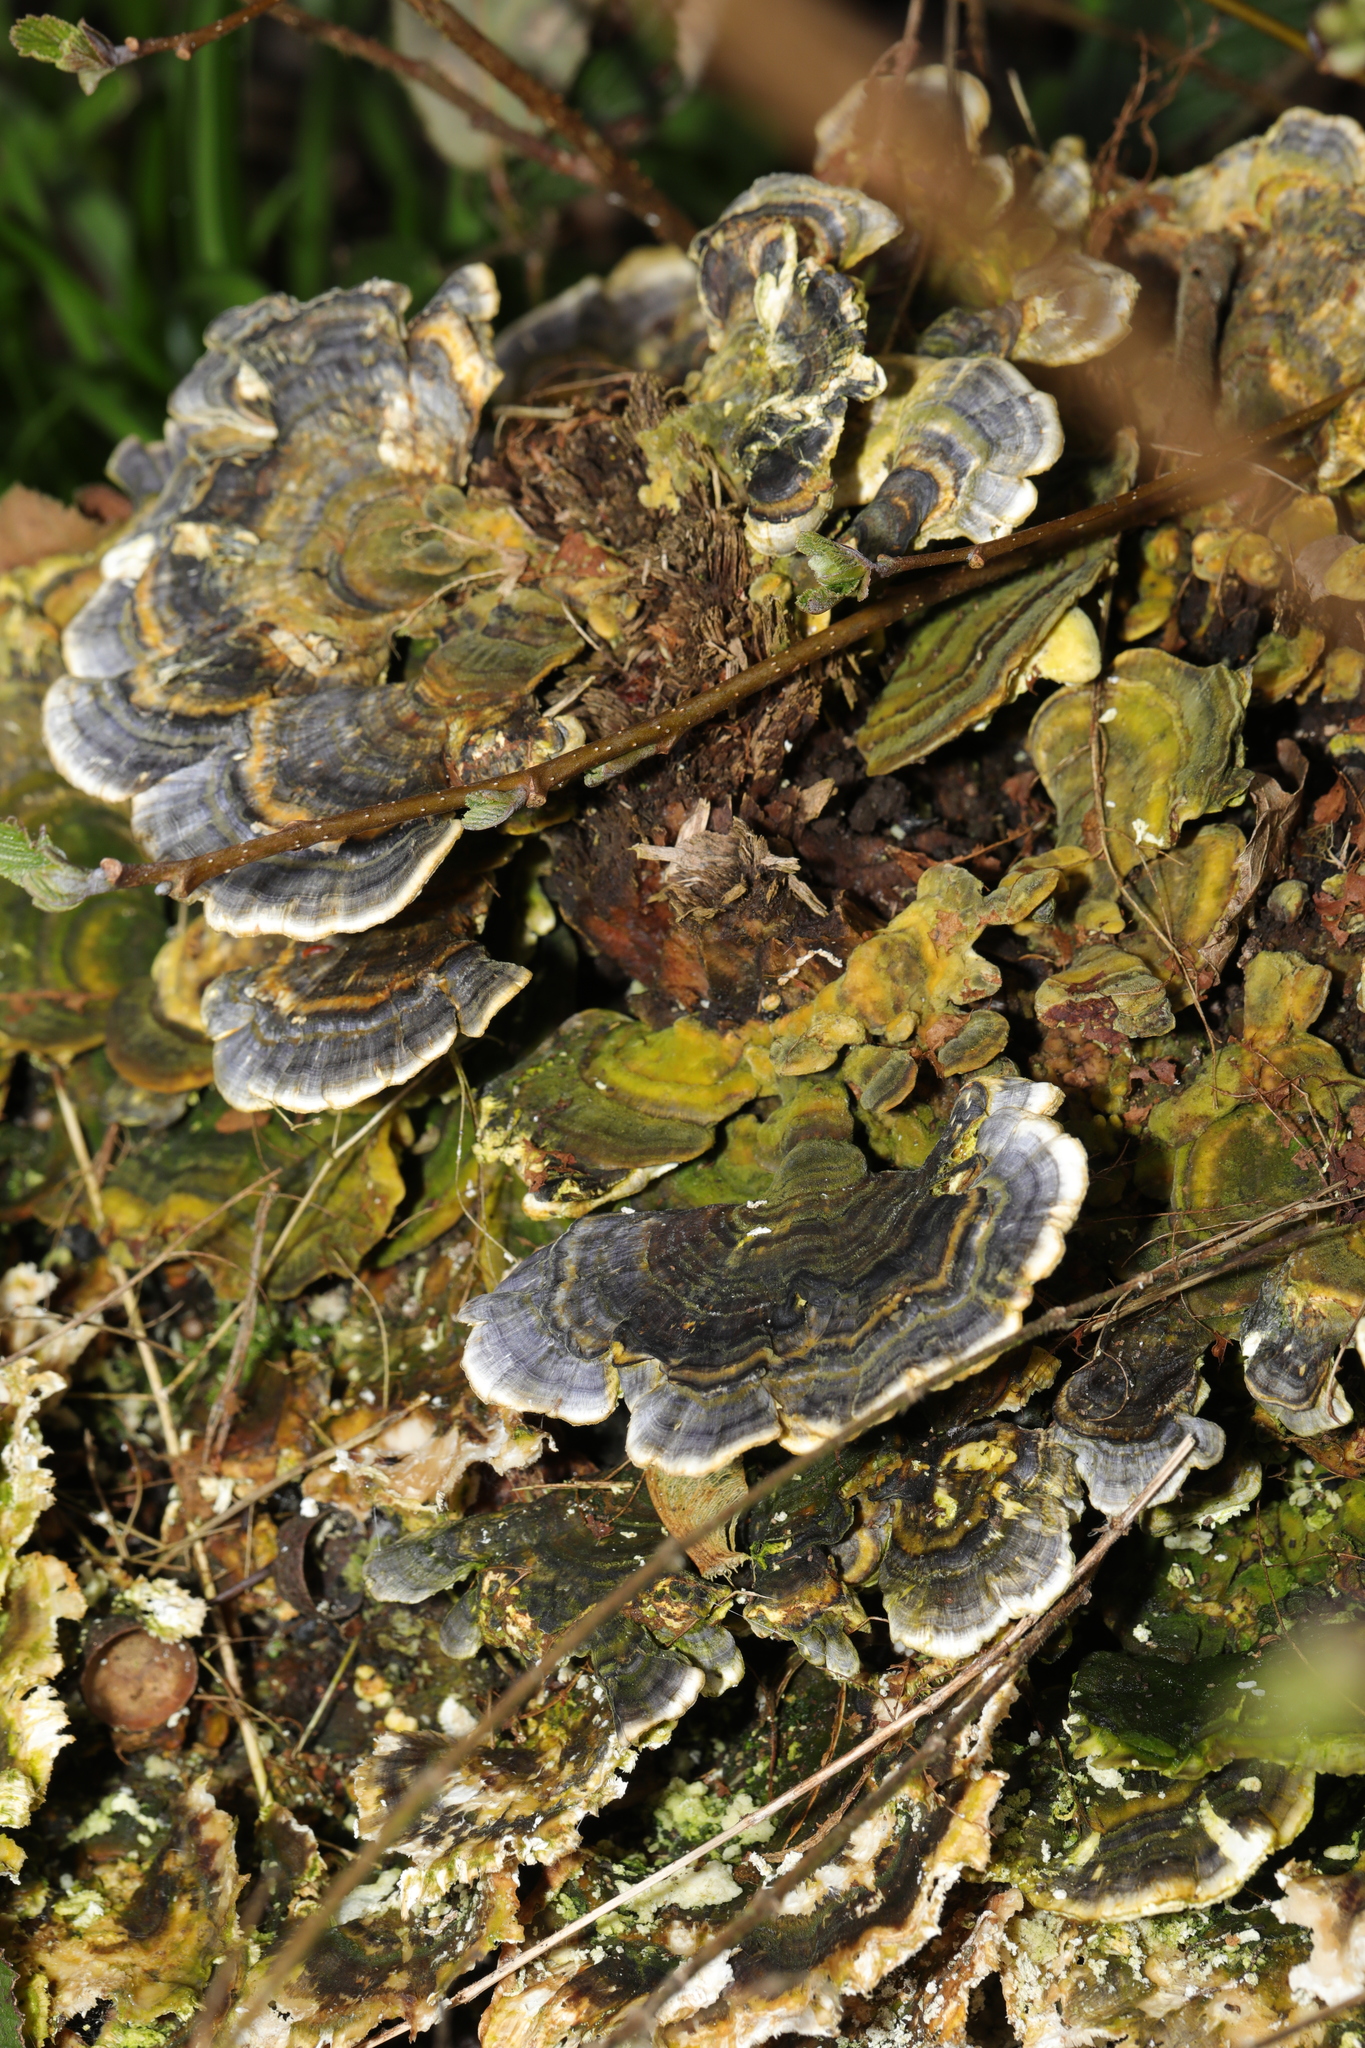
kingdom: Fungi
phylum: Basidiomycota
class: Agaricomycetes
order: Polyporales
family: Polyporaceae
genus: Trametes
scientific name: Trametes versicolor
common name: Turkeytail
